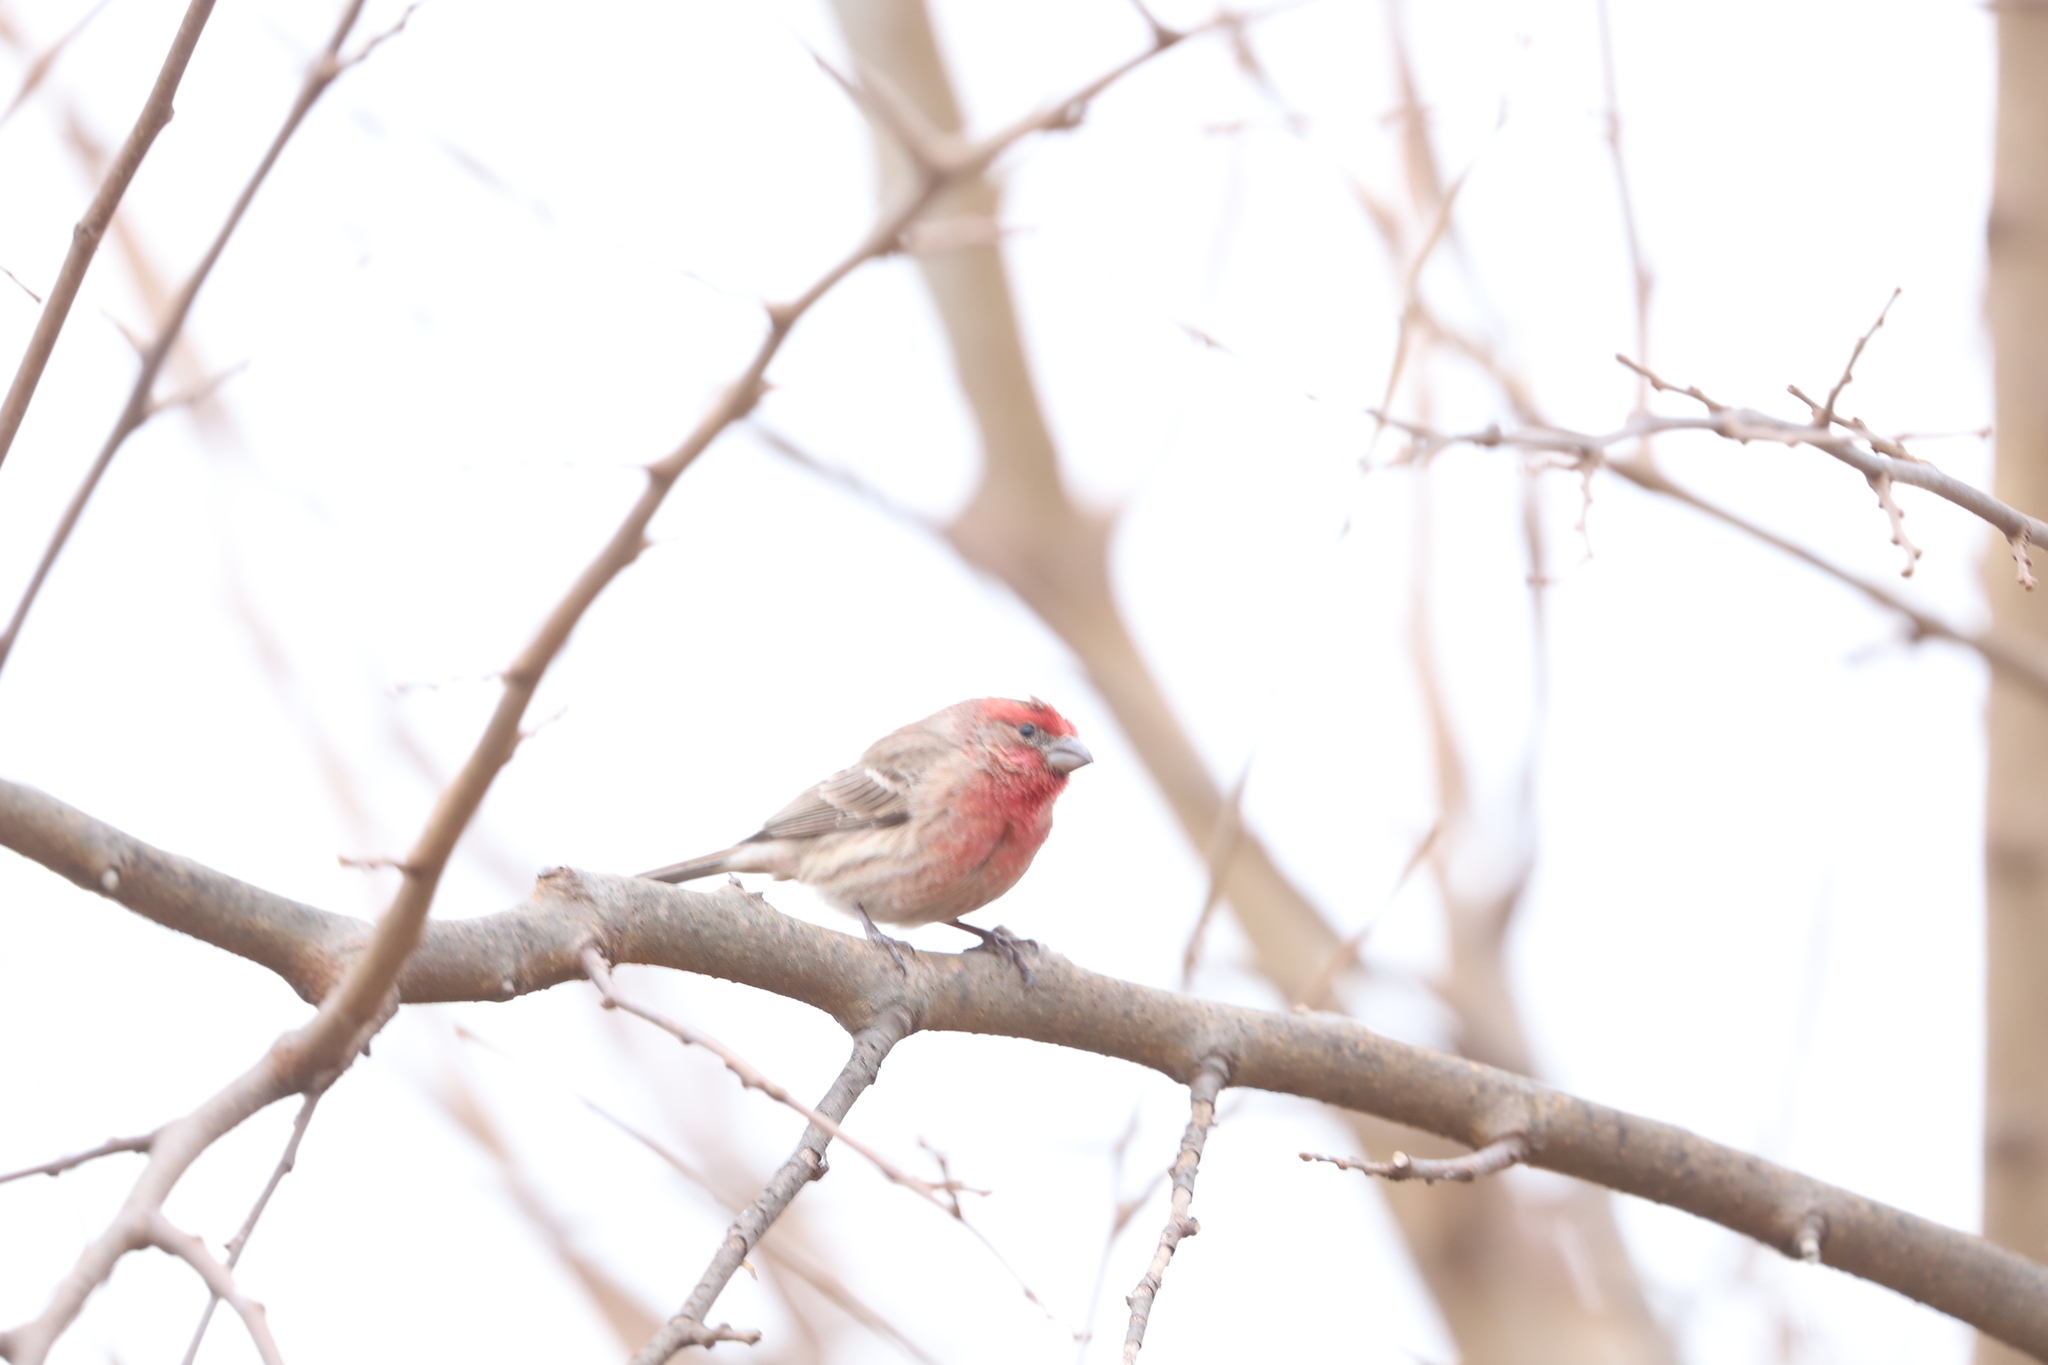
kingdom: Animalia
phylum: Chordata
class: Aves
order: Passeriformes
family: Fringillidae
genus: Haemorhous
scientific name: Haemorhous mexicanus
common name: House finch
